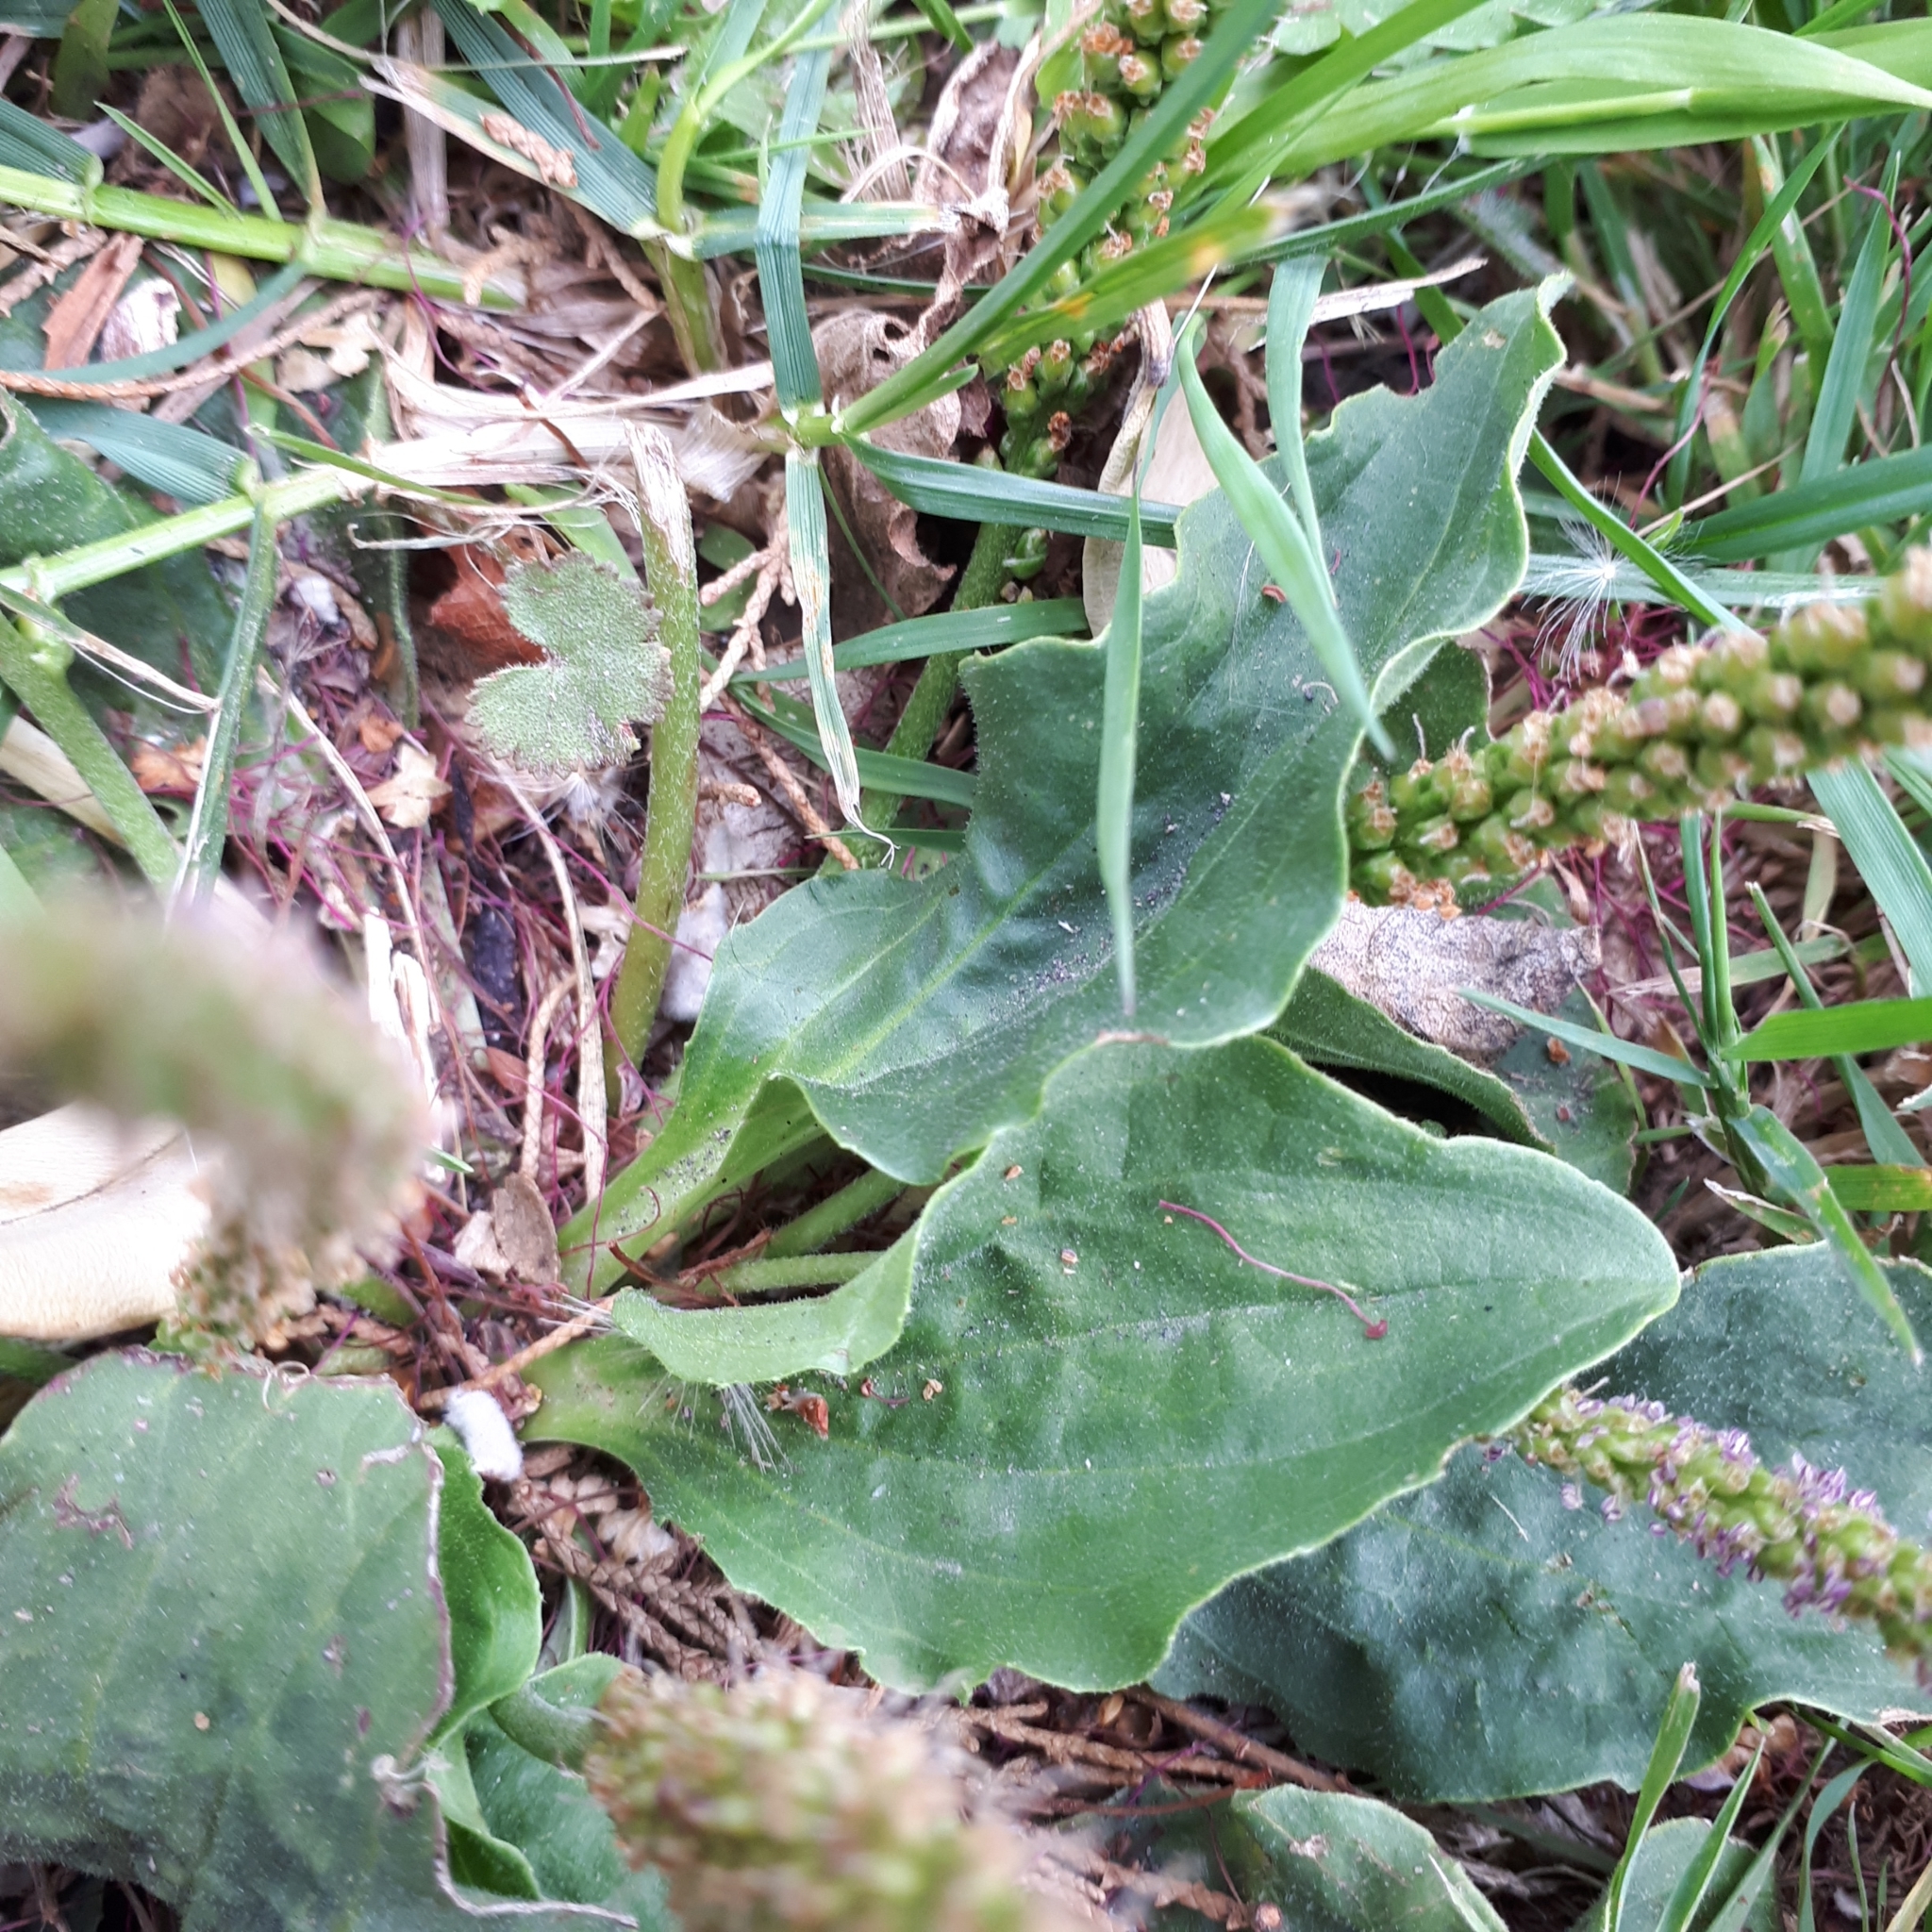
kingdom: Plantae
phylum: Tracheophyta
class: Magnoliopsida
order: Lamiales
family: Plantaginaceae
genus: Plantago
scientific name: Plantago major
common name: Common plantain
